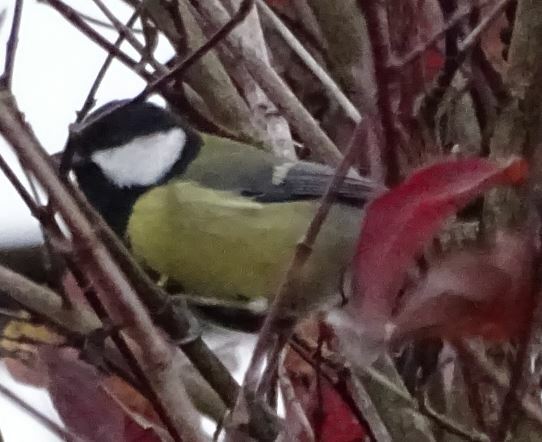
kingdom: Animalia
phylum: Chordata
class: Aves
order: Passeriformes
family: Paridae
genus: Parus
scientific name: Parus major
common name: Great tit
